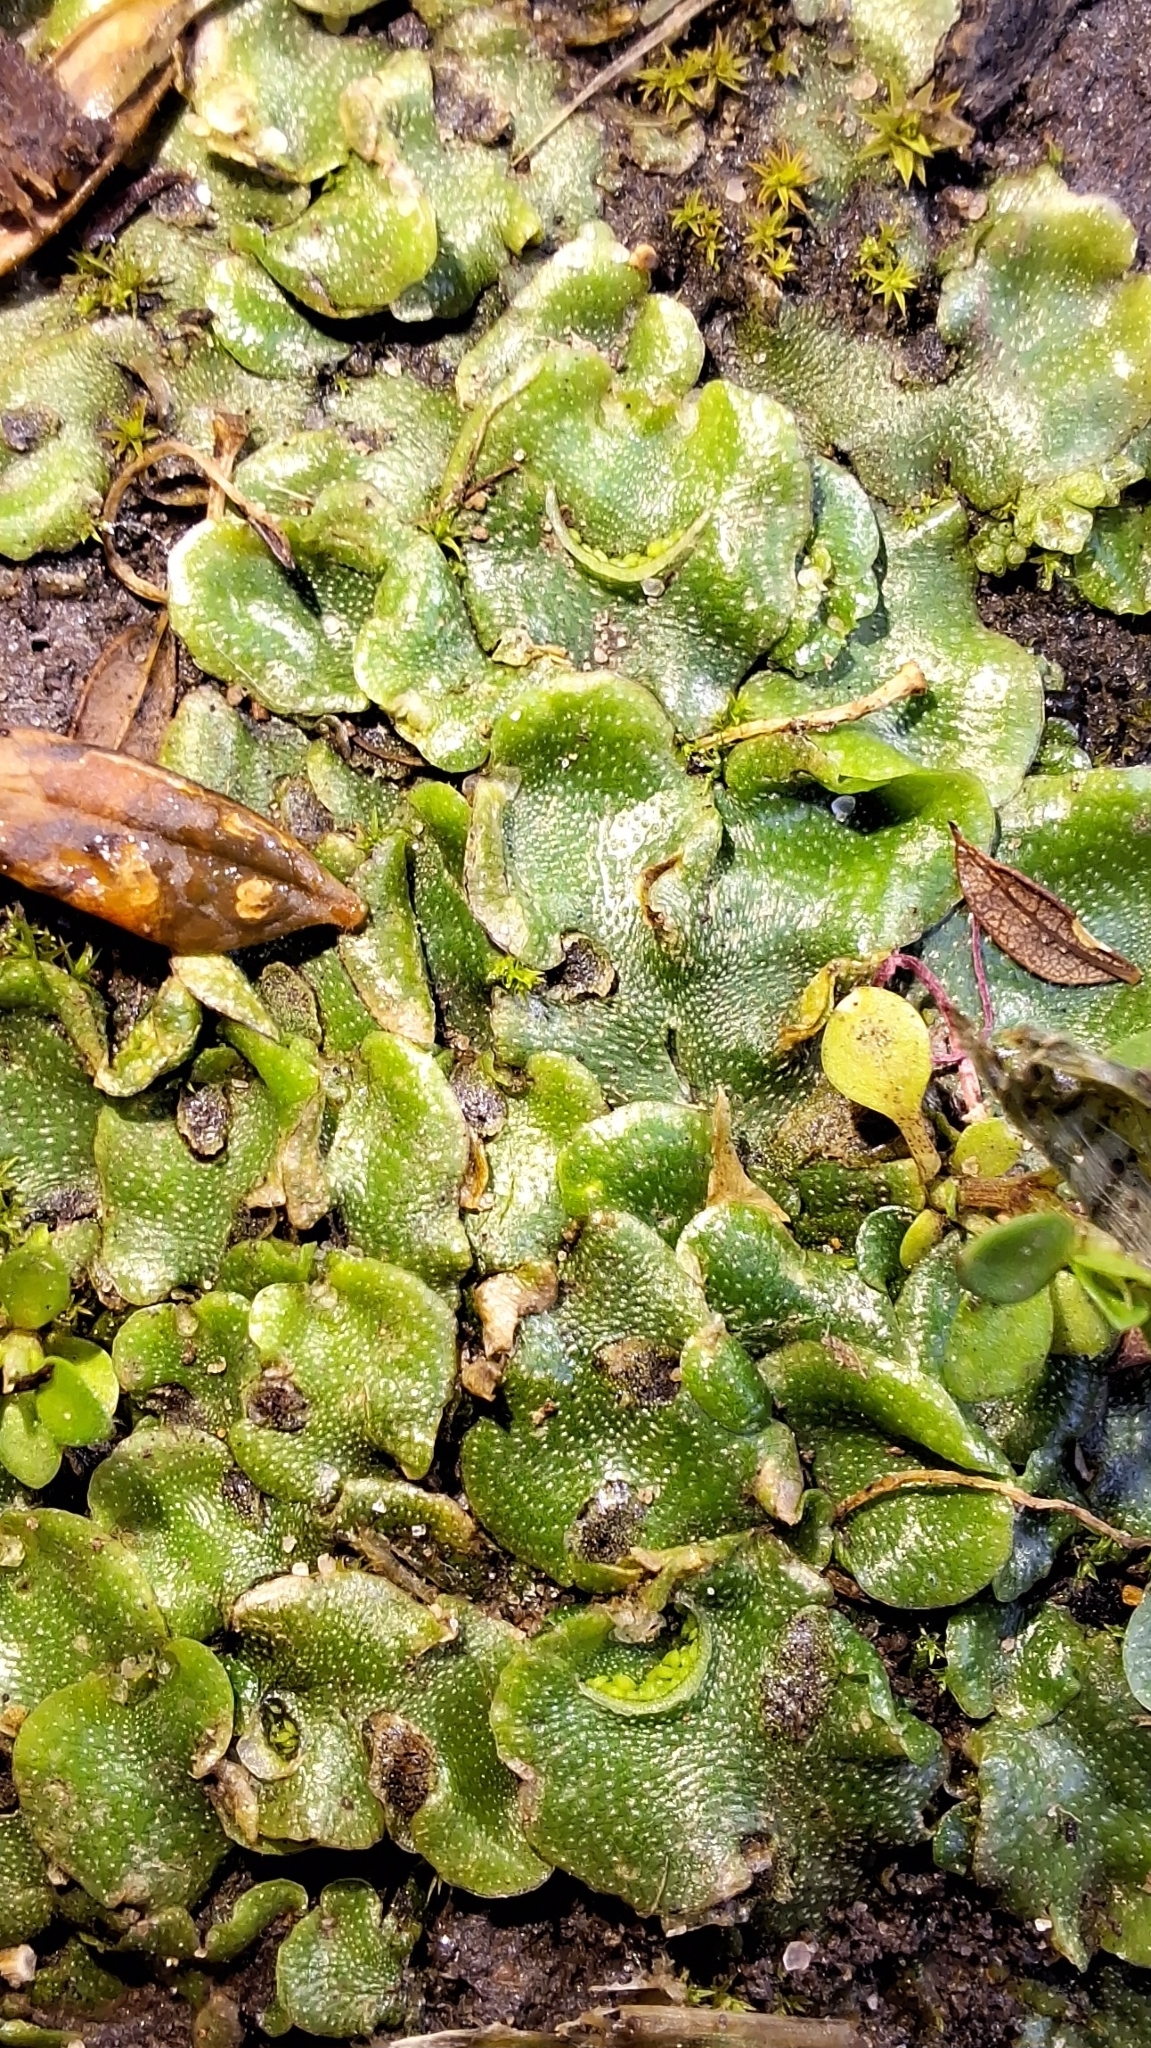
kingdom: Plantae
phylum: Marchantiophyta
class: Marchantiopsida
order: Lunulariales
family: Lunulariaceae
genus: Lunularia
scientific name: Lunularia cruciata
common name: Crescent-cup liverwort
